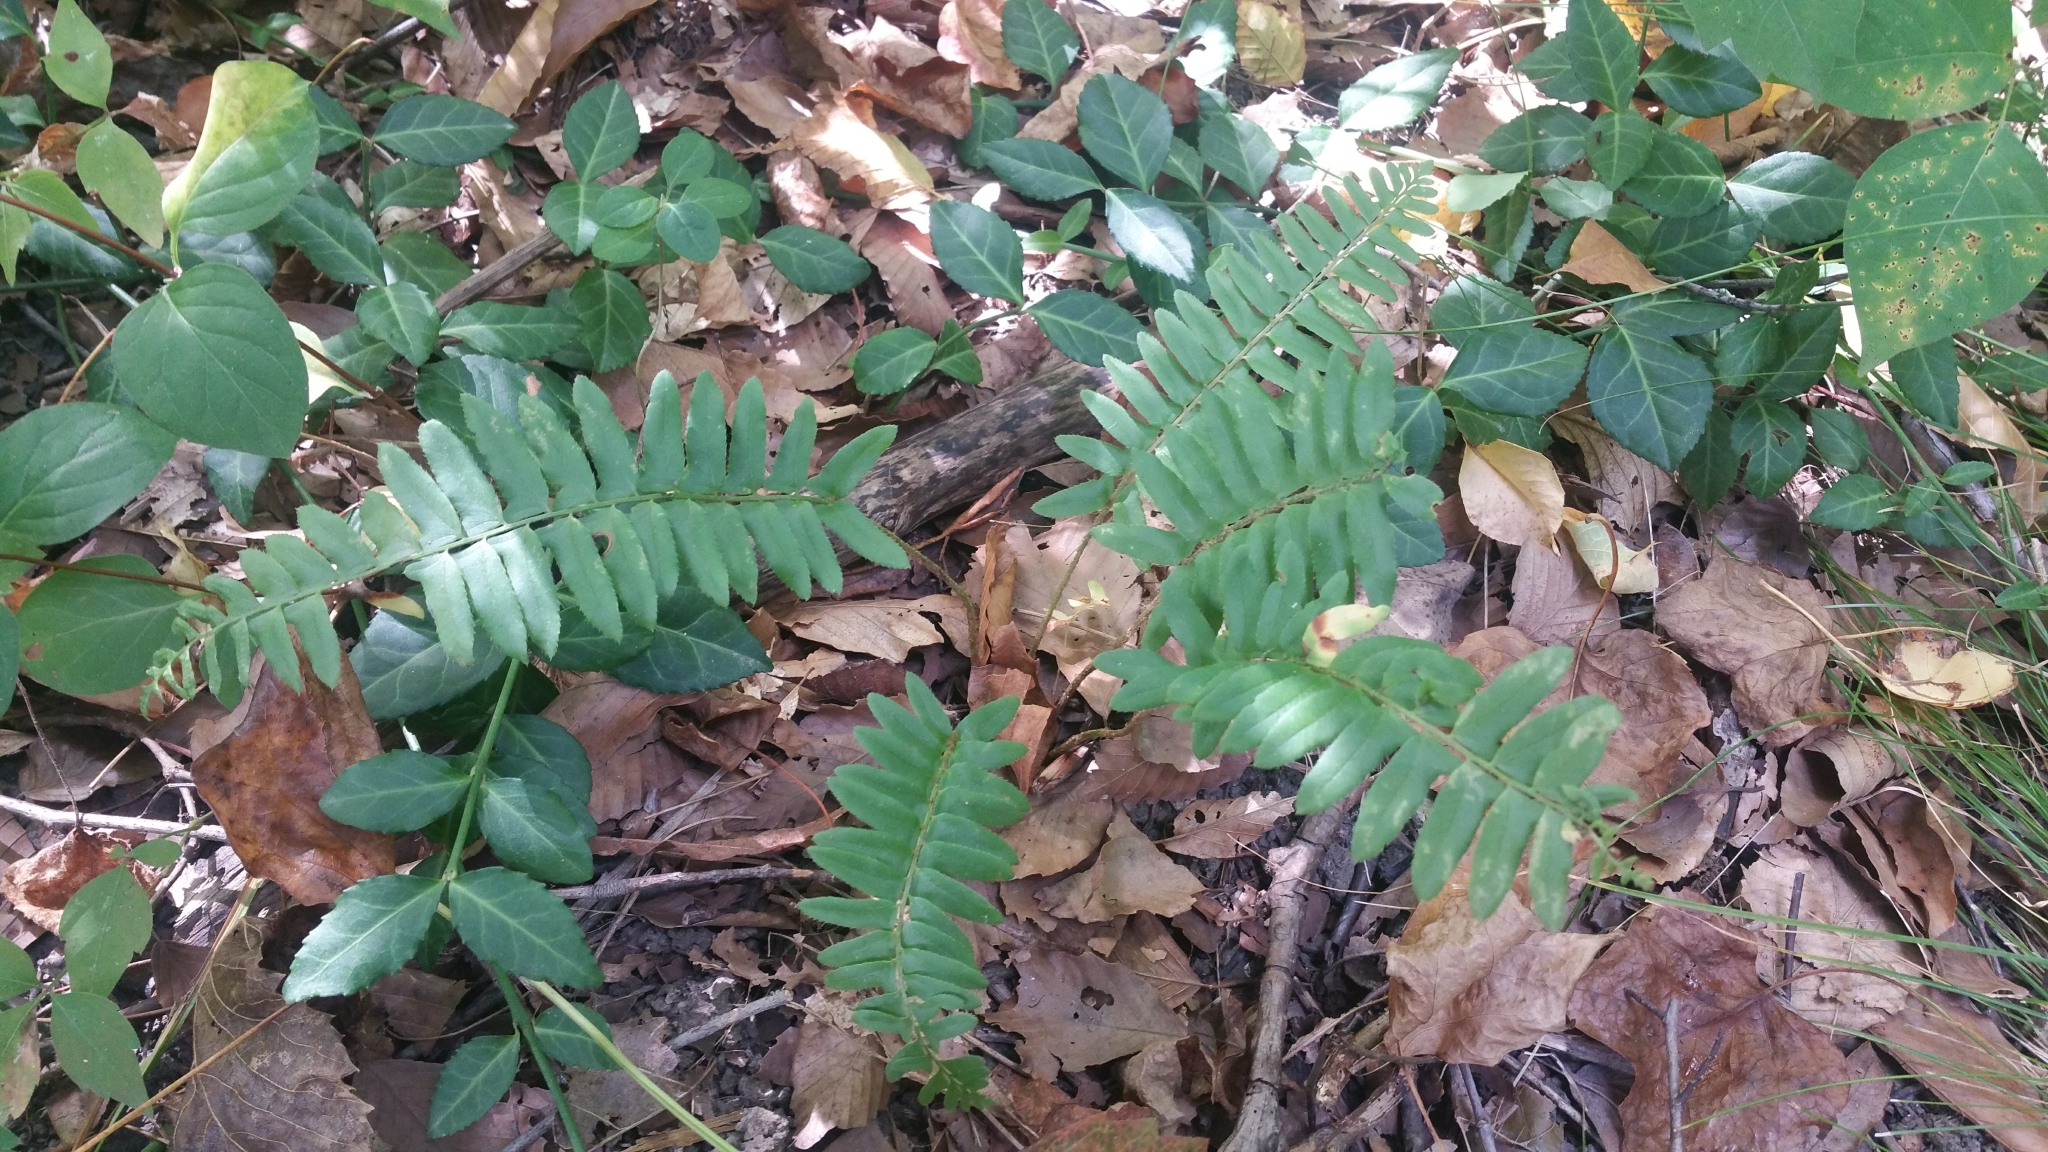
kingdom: Plantae
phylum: Tracheophyta
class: Polypodiopsida
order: Polypodiales
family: Dryopteridaceae
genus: Polystichum
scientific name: Polystichum acrostichoides
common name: Christmas fern
